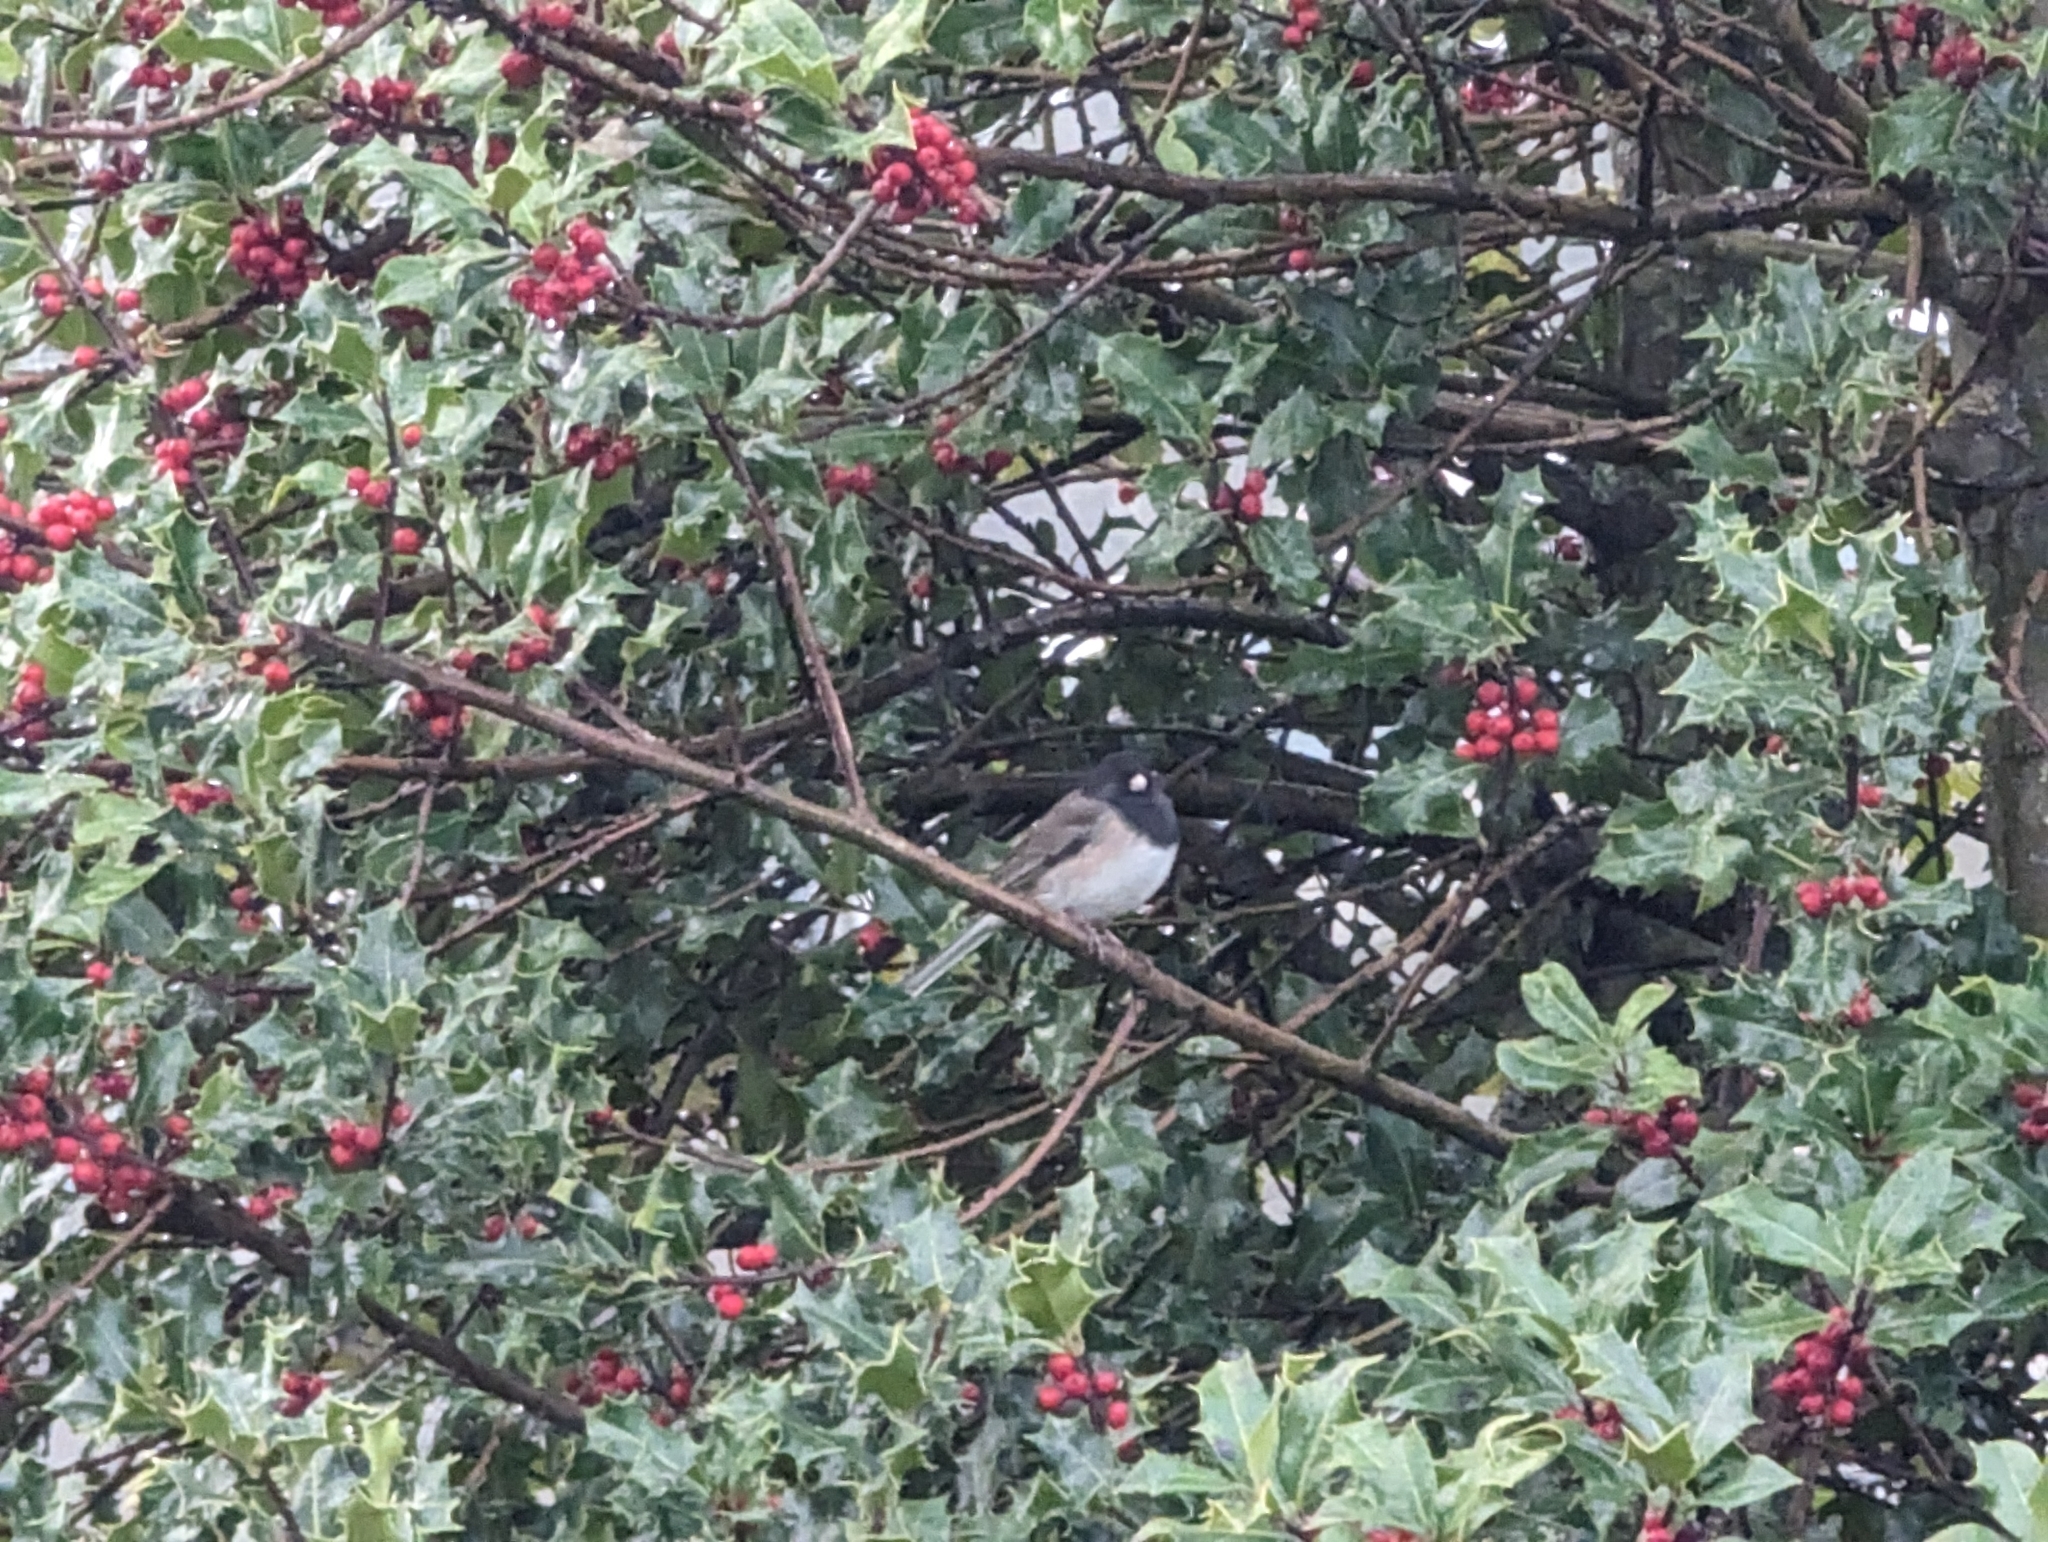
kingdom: Animalia
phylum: Chordata
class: Aves
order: Passeriformes
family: Passerellidae
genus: Junco
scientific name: Junco hyemalis
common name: Dark-eyed junco
